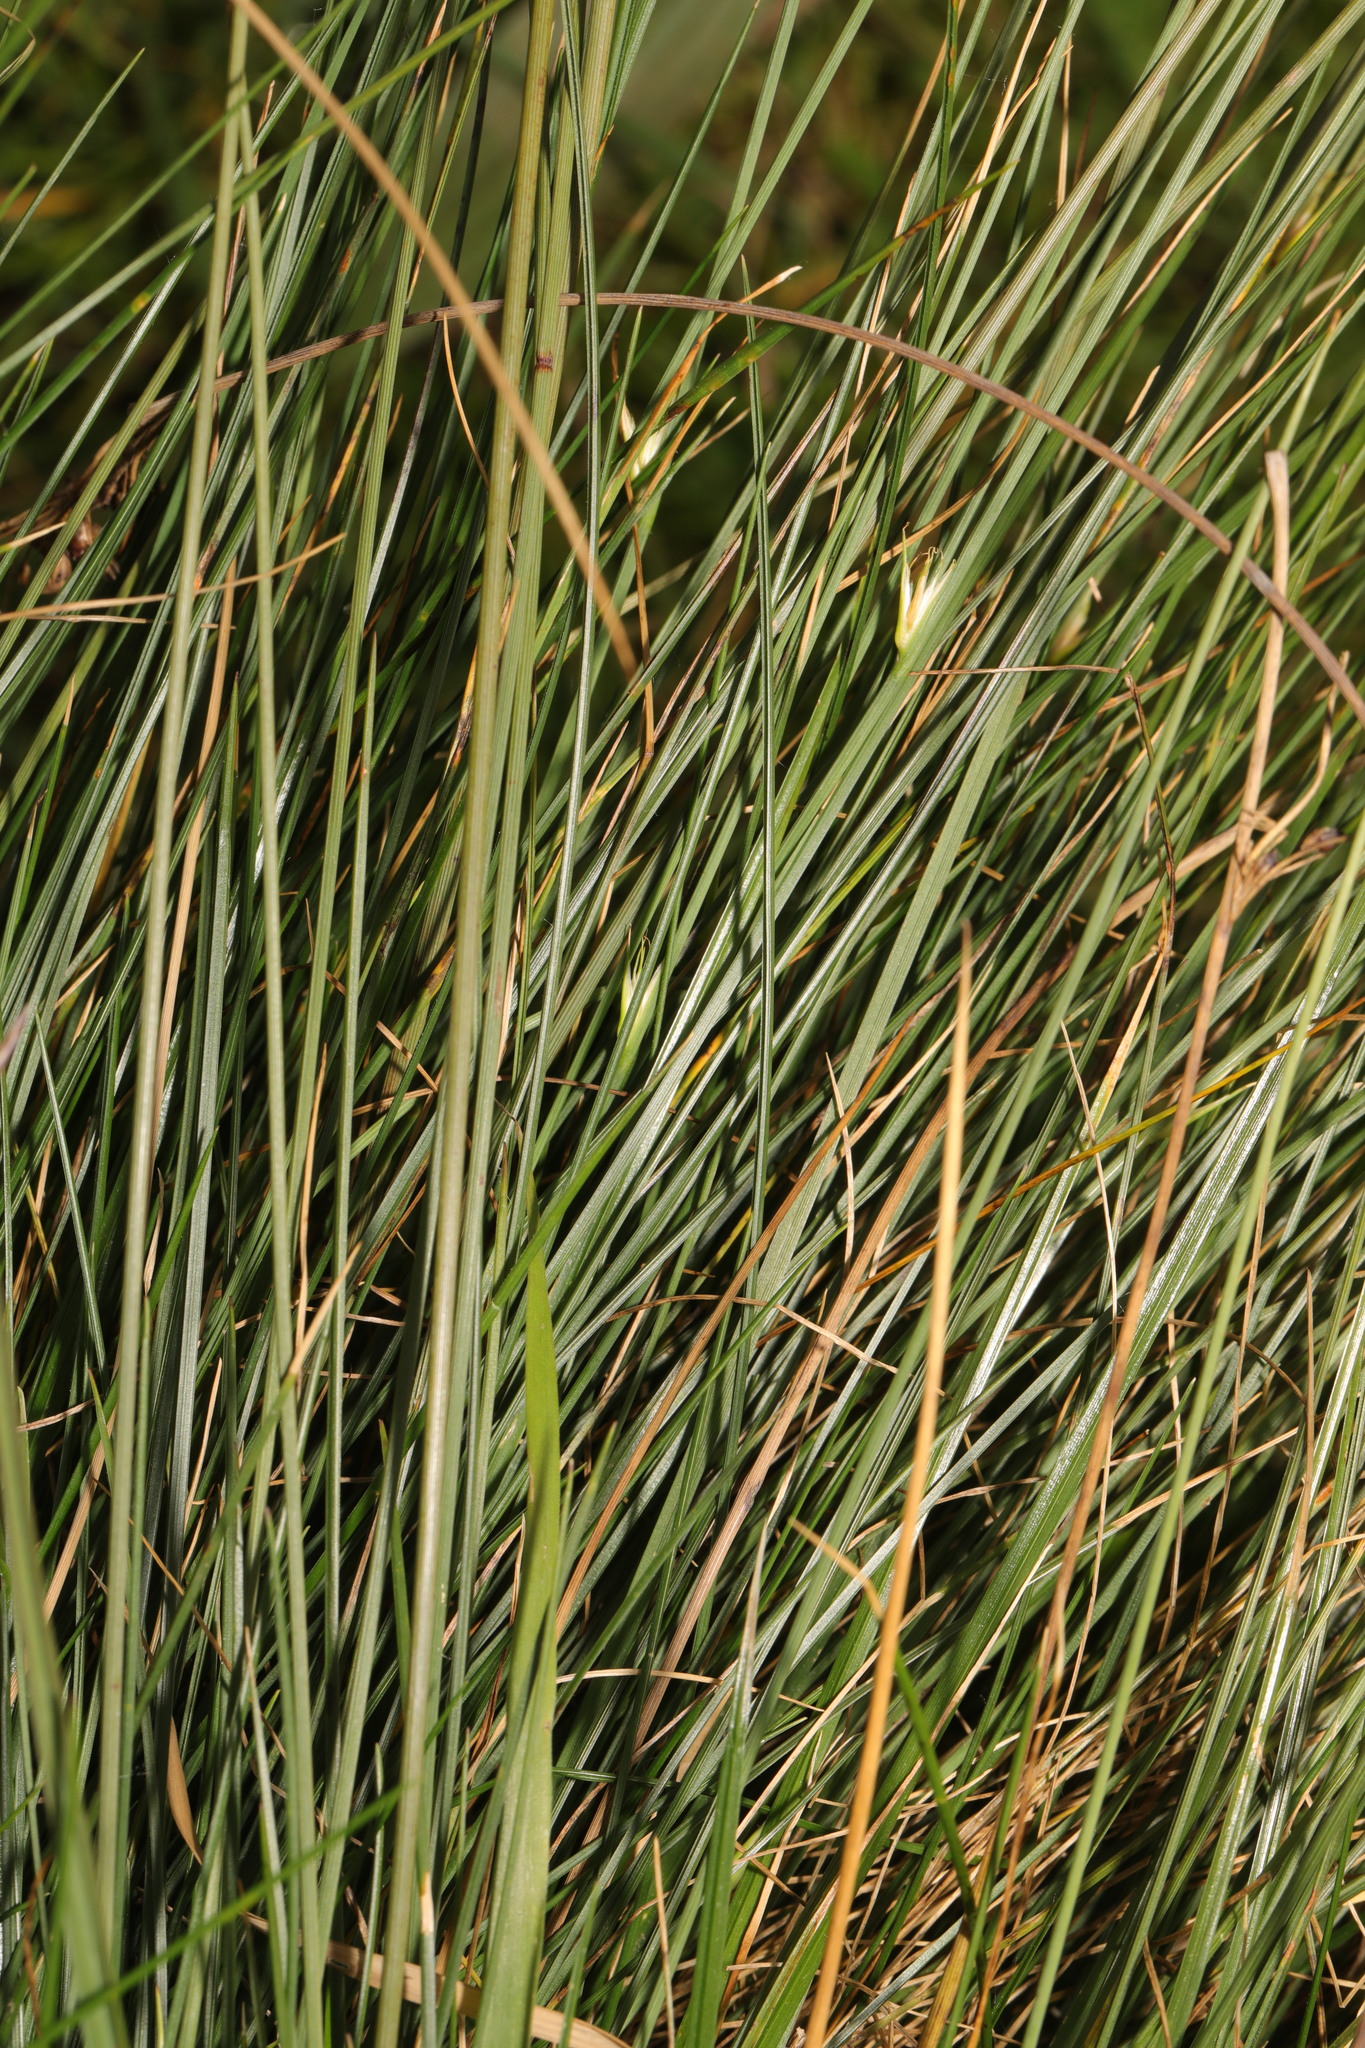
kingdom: Plantae
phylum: Tracheophyta
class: Liliopsida
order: Poales
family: Juncaceae
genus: Juncus
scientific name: Juncus inflexus
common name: Hard rush
